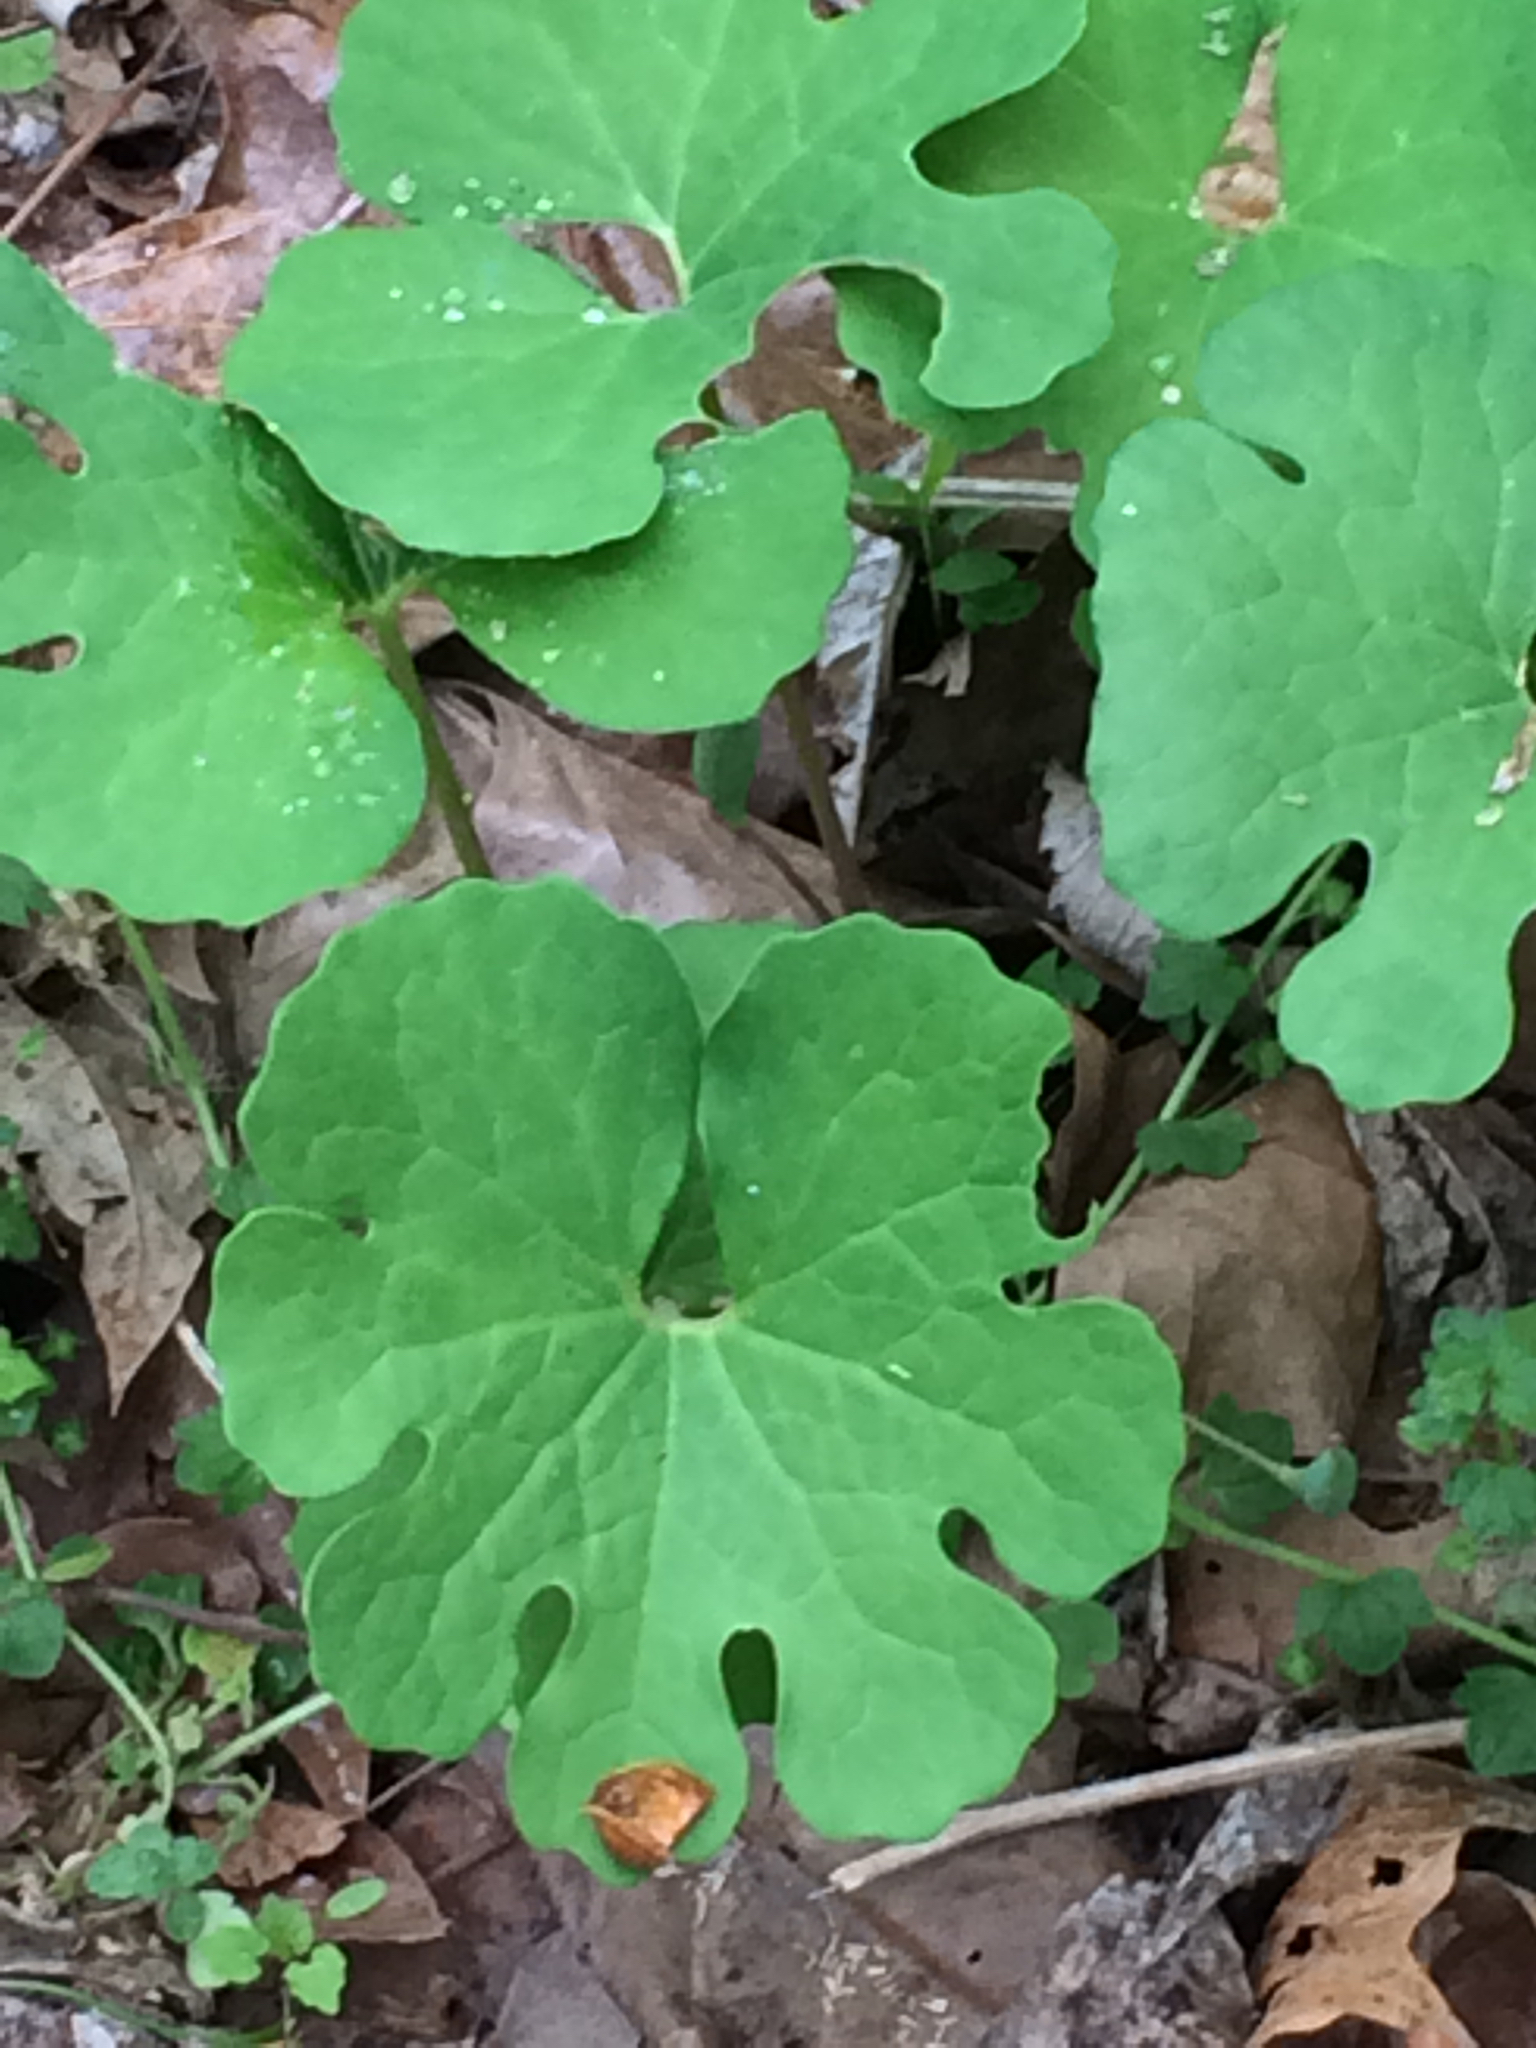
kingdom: Plantae
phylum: Tracheophyta
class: Magnoliopsida
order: Ranunculales
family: Papaveraceae
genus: Sanguinaria
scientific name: Sanguinaria canadensis
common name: Bloodroot
